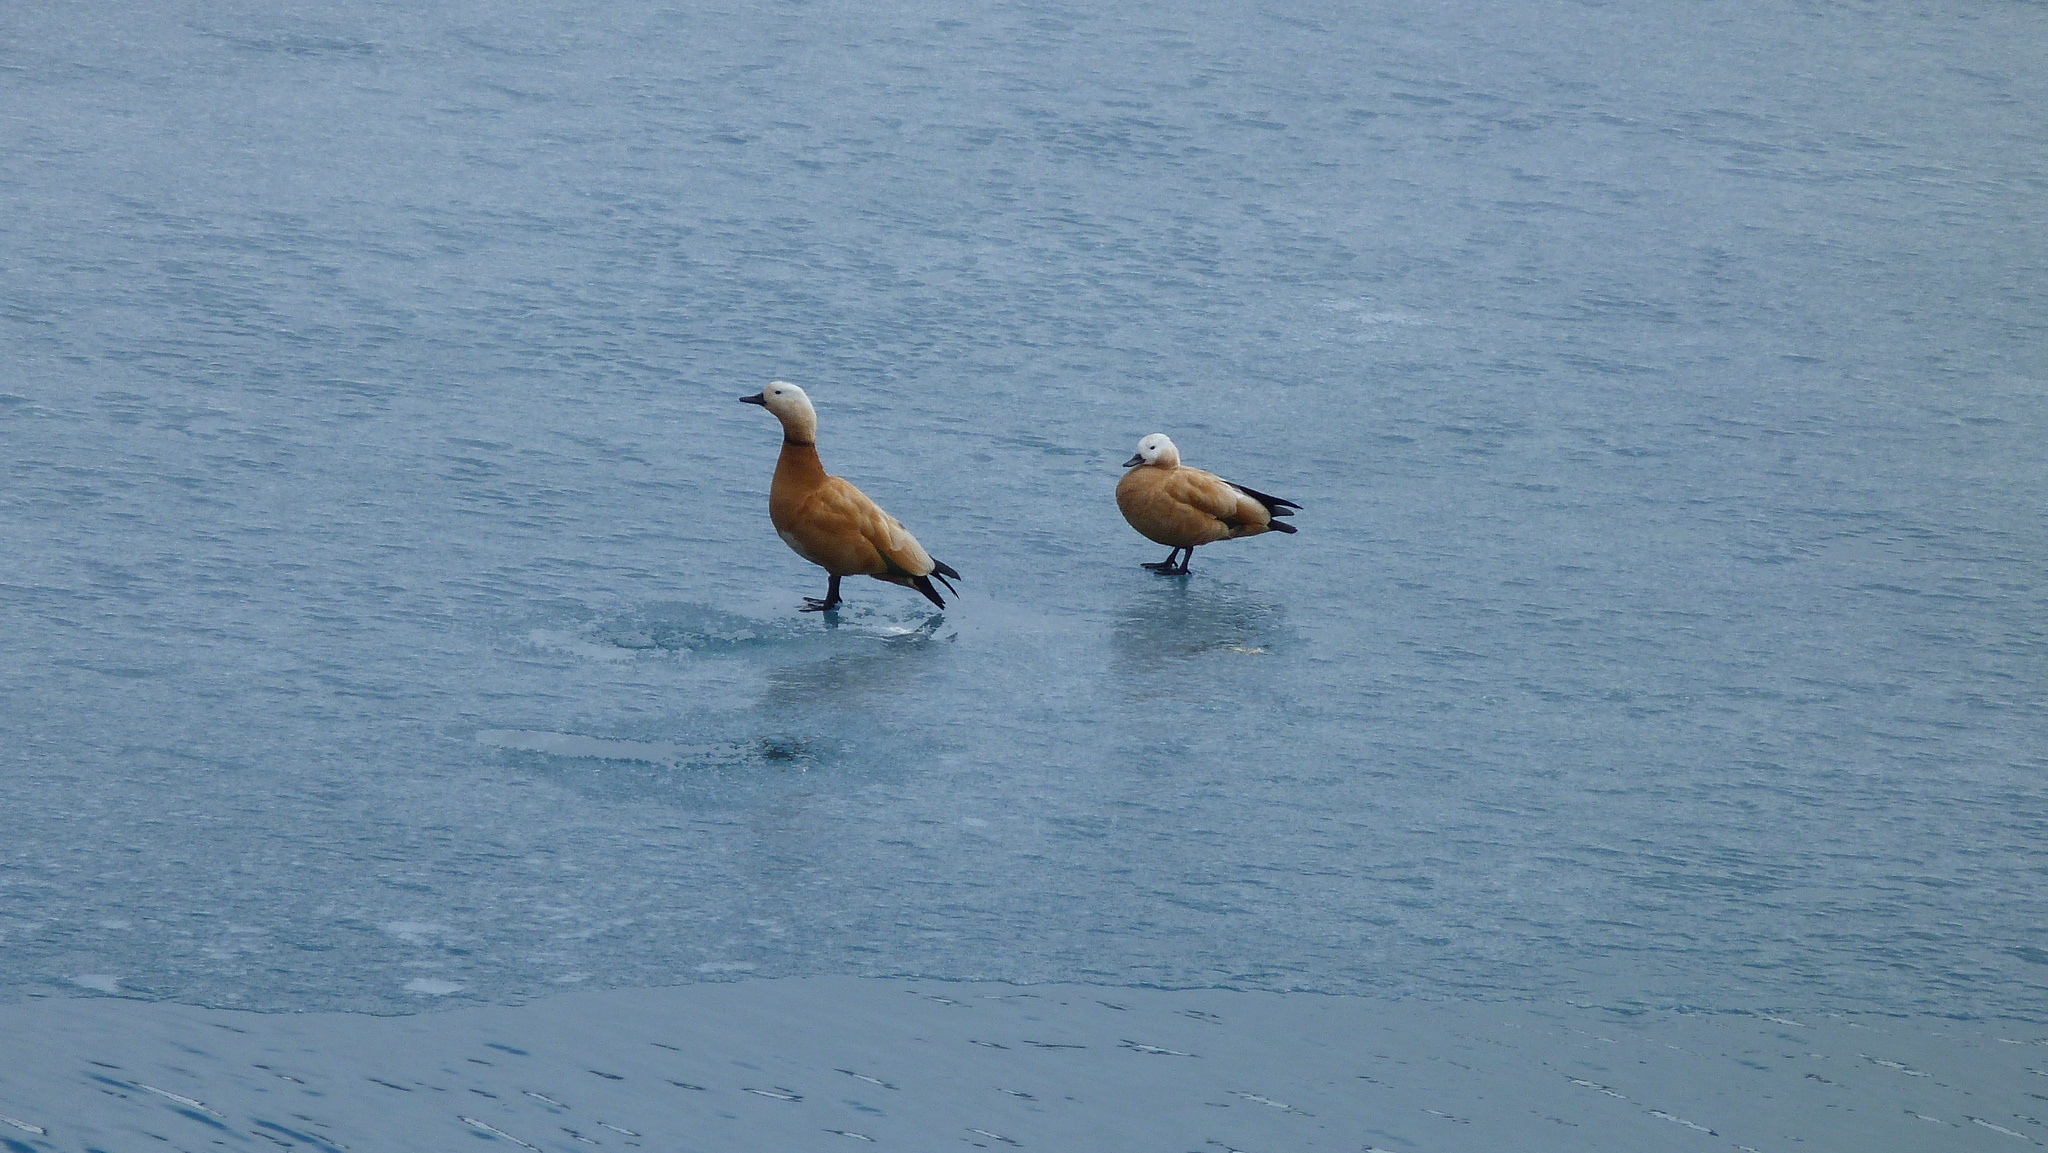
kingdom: Animalia
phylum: Chordata
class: Aves
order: Anseriformes
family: Anatidae
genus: Tadorna
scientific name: Tadorna ferruginea
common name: Ruddy shelduck
